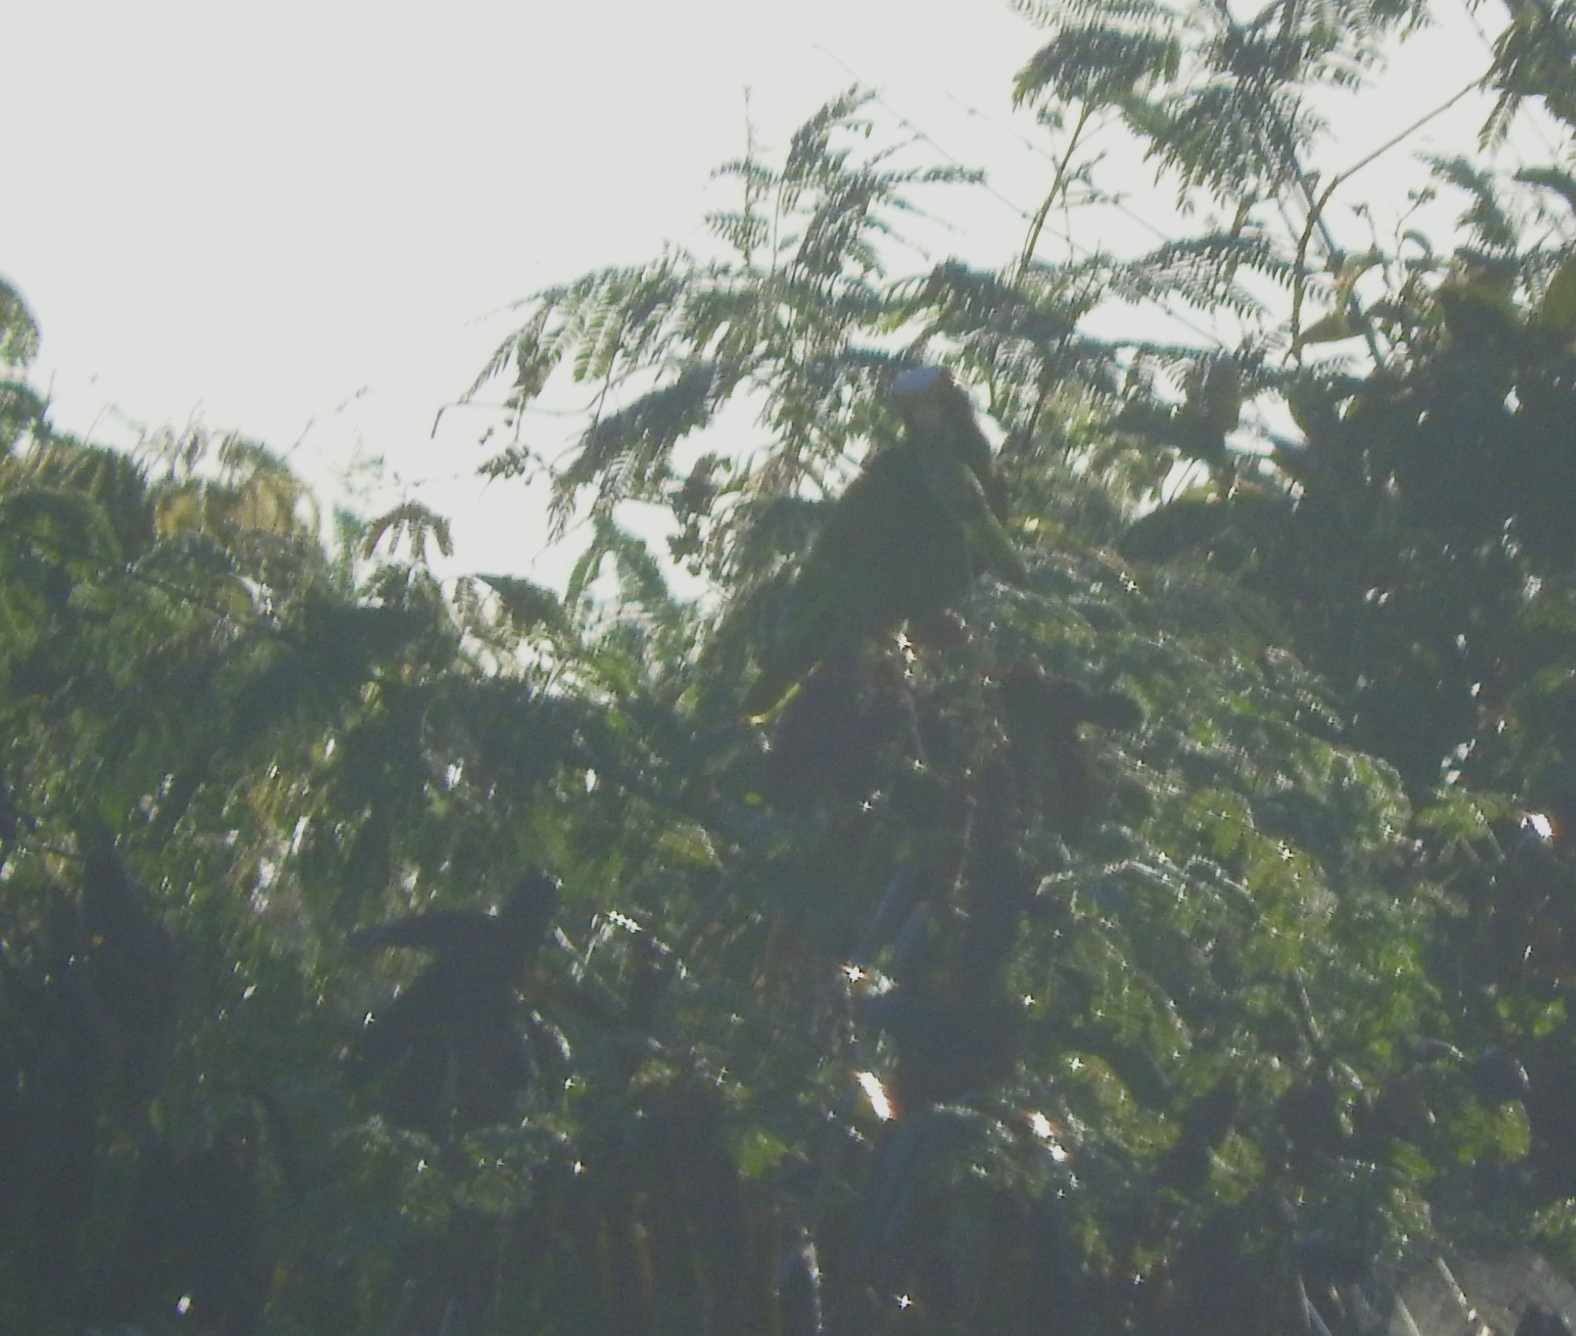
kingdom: Animalia
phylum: Chordata
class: Aves
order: Psittaciformes
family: Psittacidae
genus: Amazona
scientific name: Amazona albifrons
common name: White-fronted amazon
